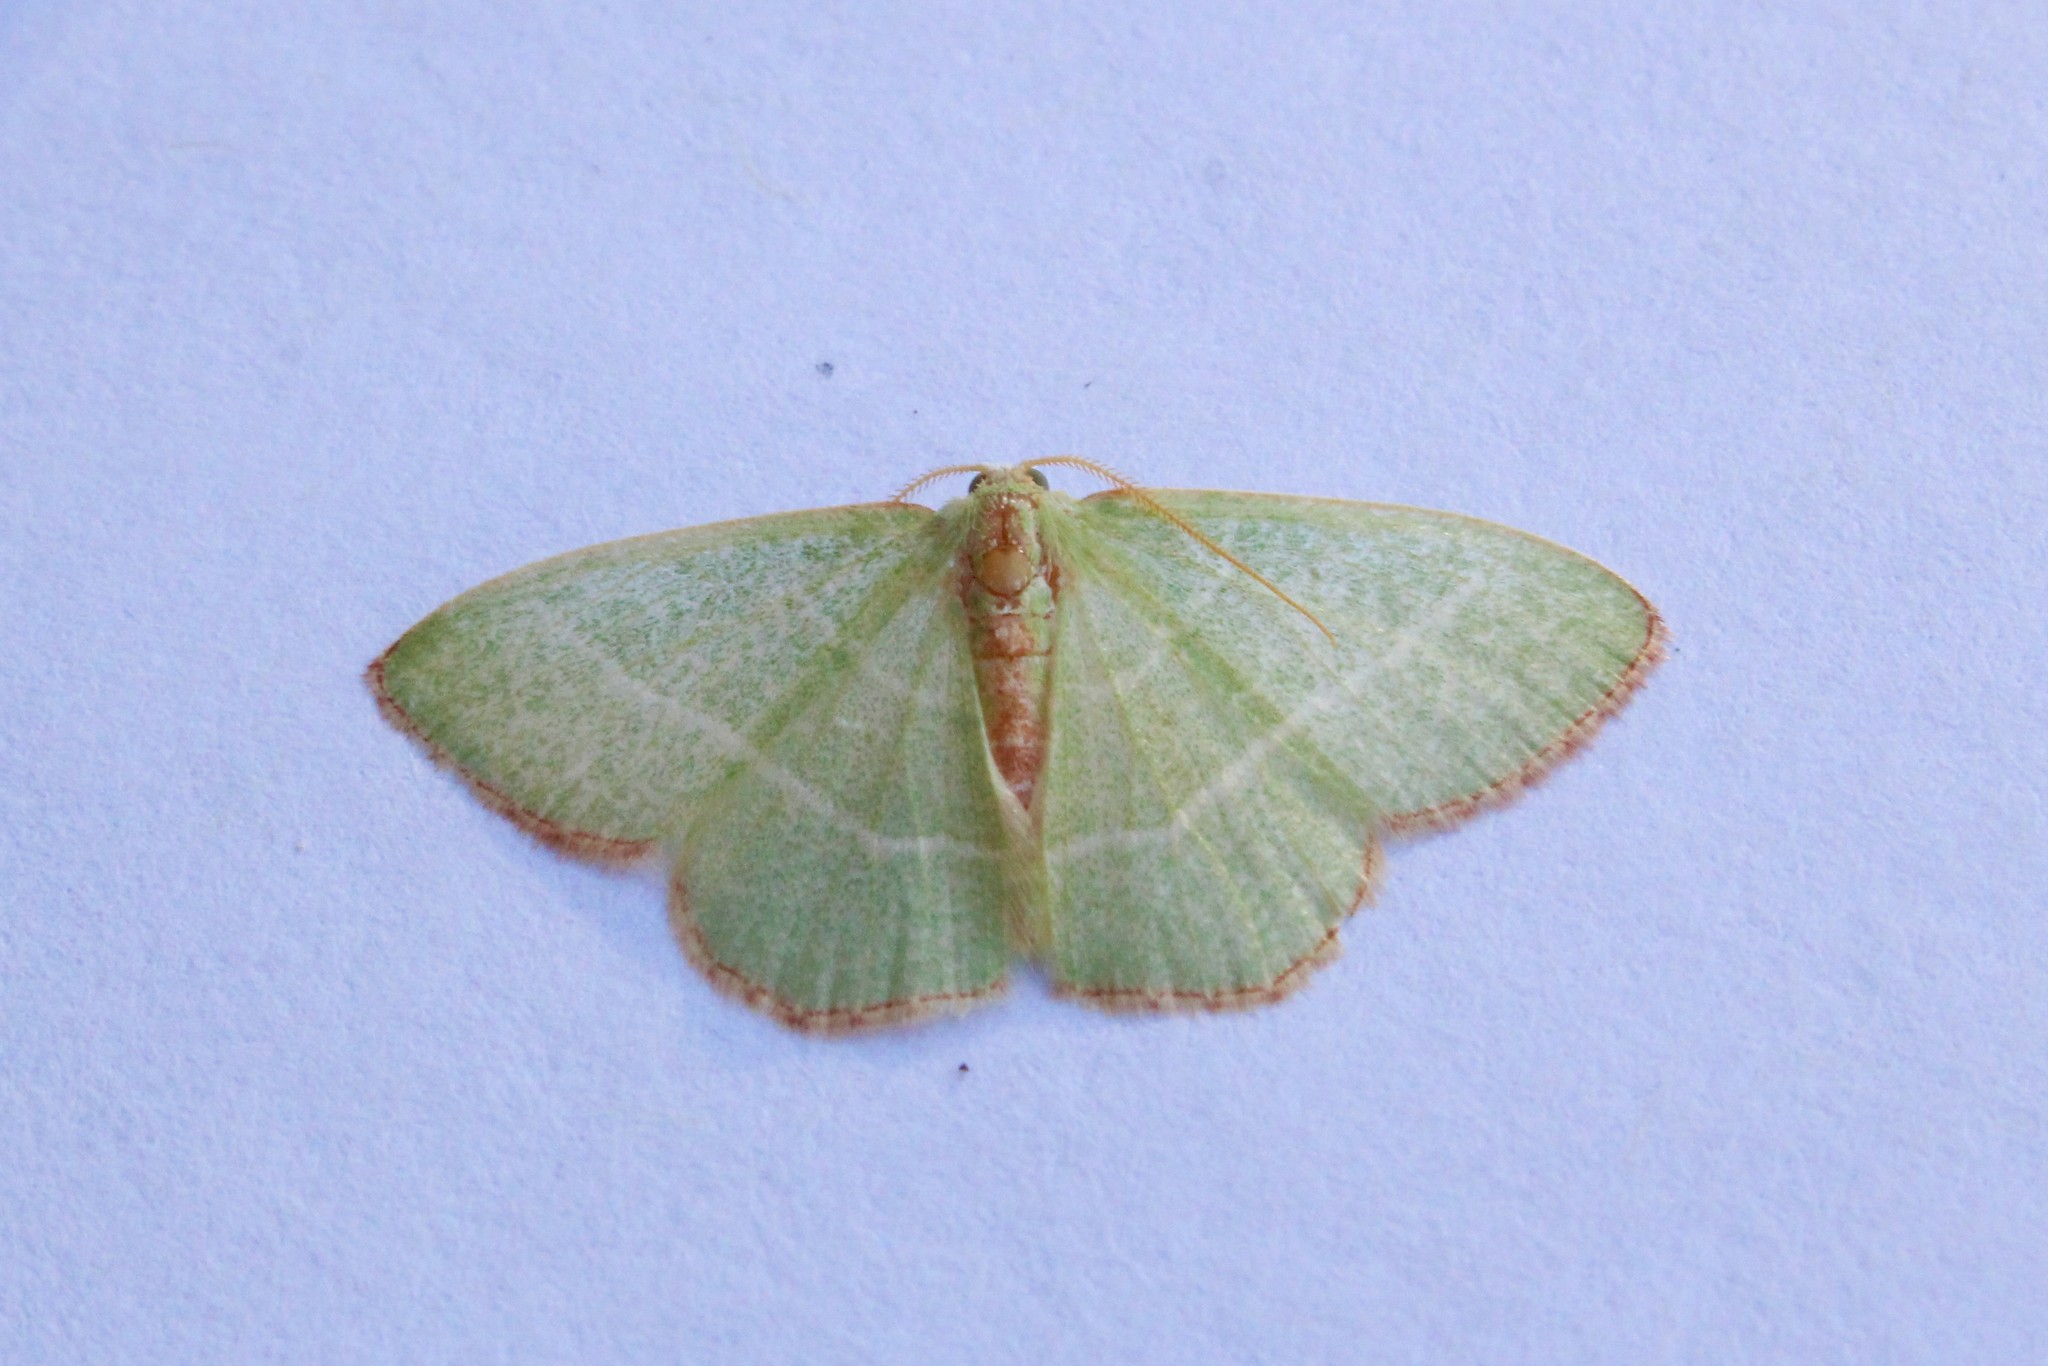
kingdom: Animalia
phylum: Arthropoda
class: Insecta
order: Lepidoptera
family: Geometridae
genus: Nemoria
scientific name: Nemoria bistriaria
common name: Red-fringed emerald
